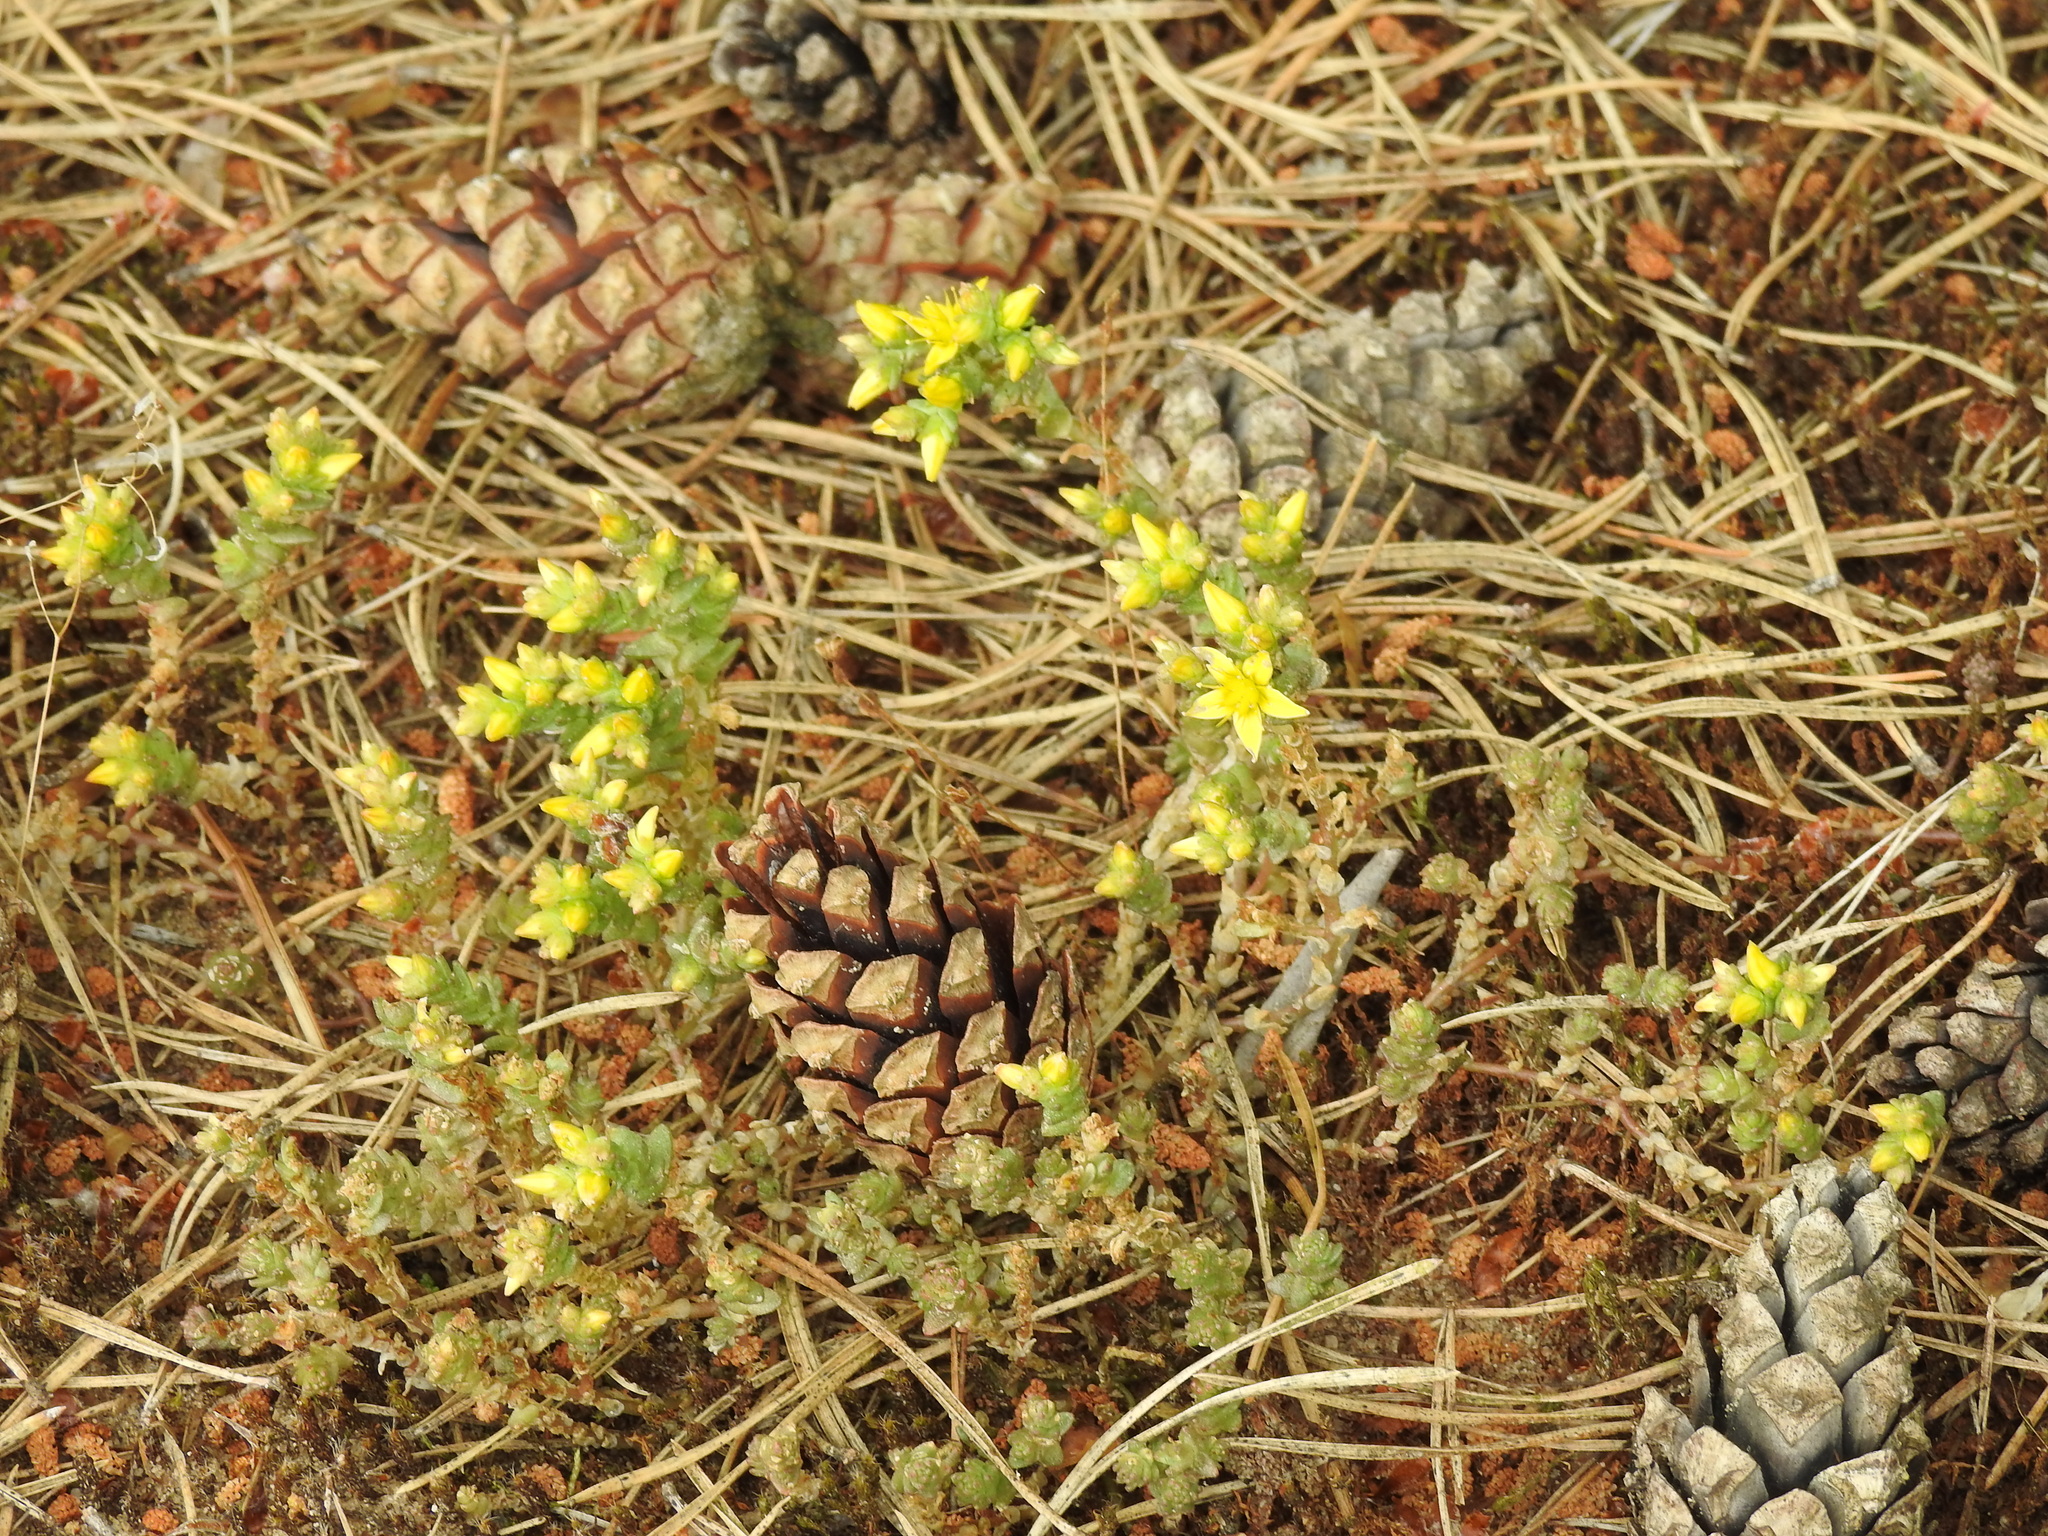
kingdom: Plantae
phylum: Tracheophyta
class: Magnoliopsida
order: Saxifragales
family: Crassulaceae
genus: Sedum
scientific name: Sedum acre
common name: Biting stonecrop
